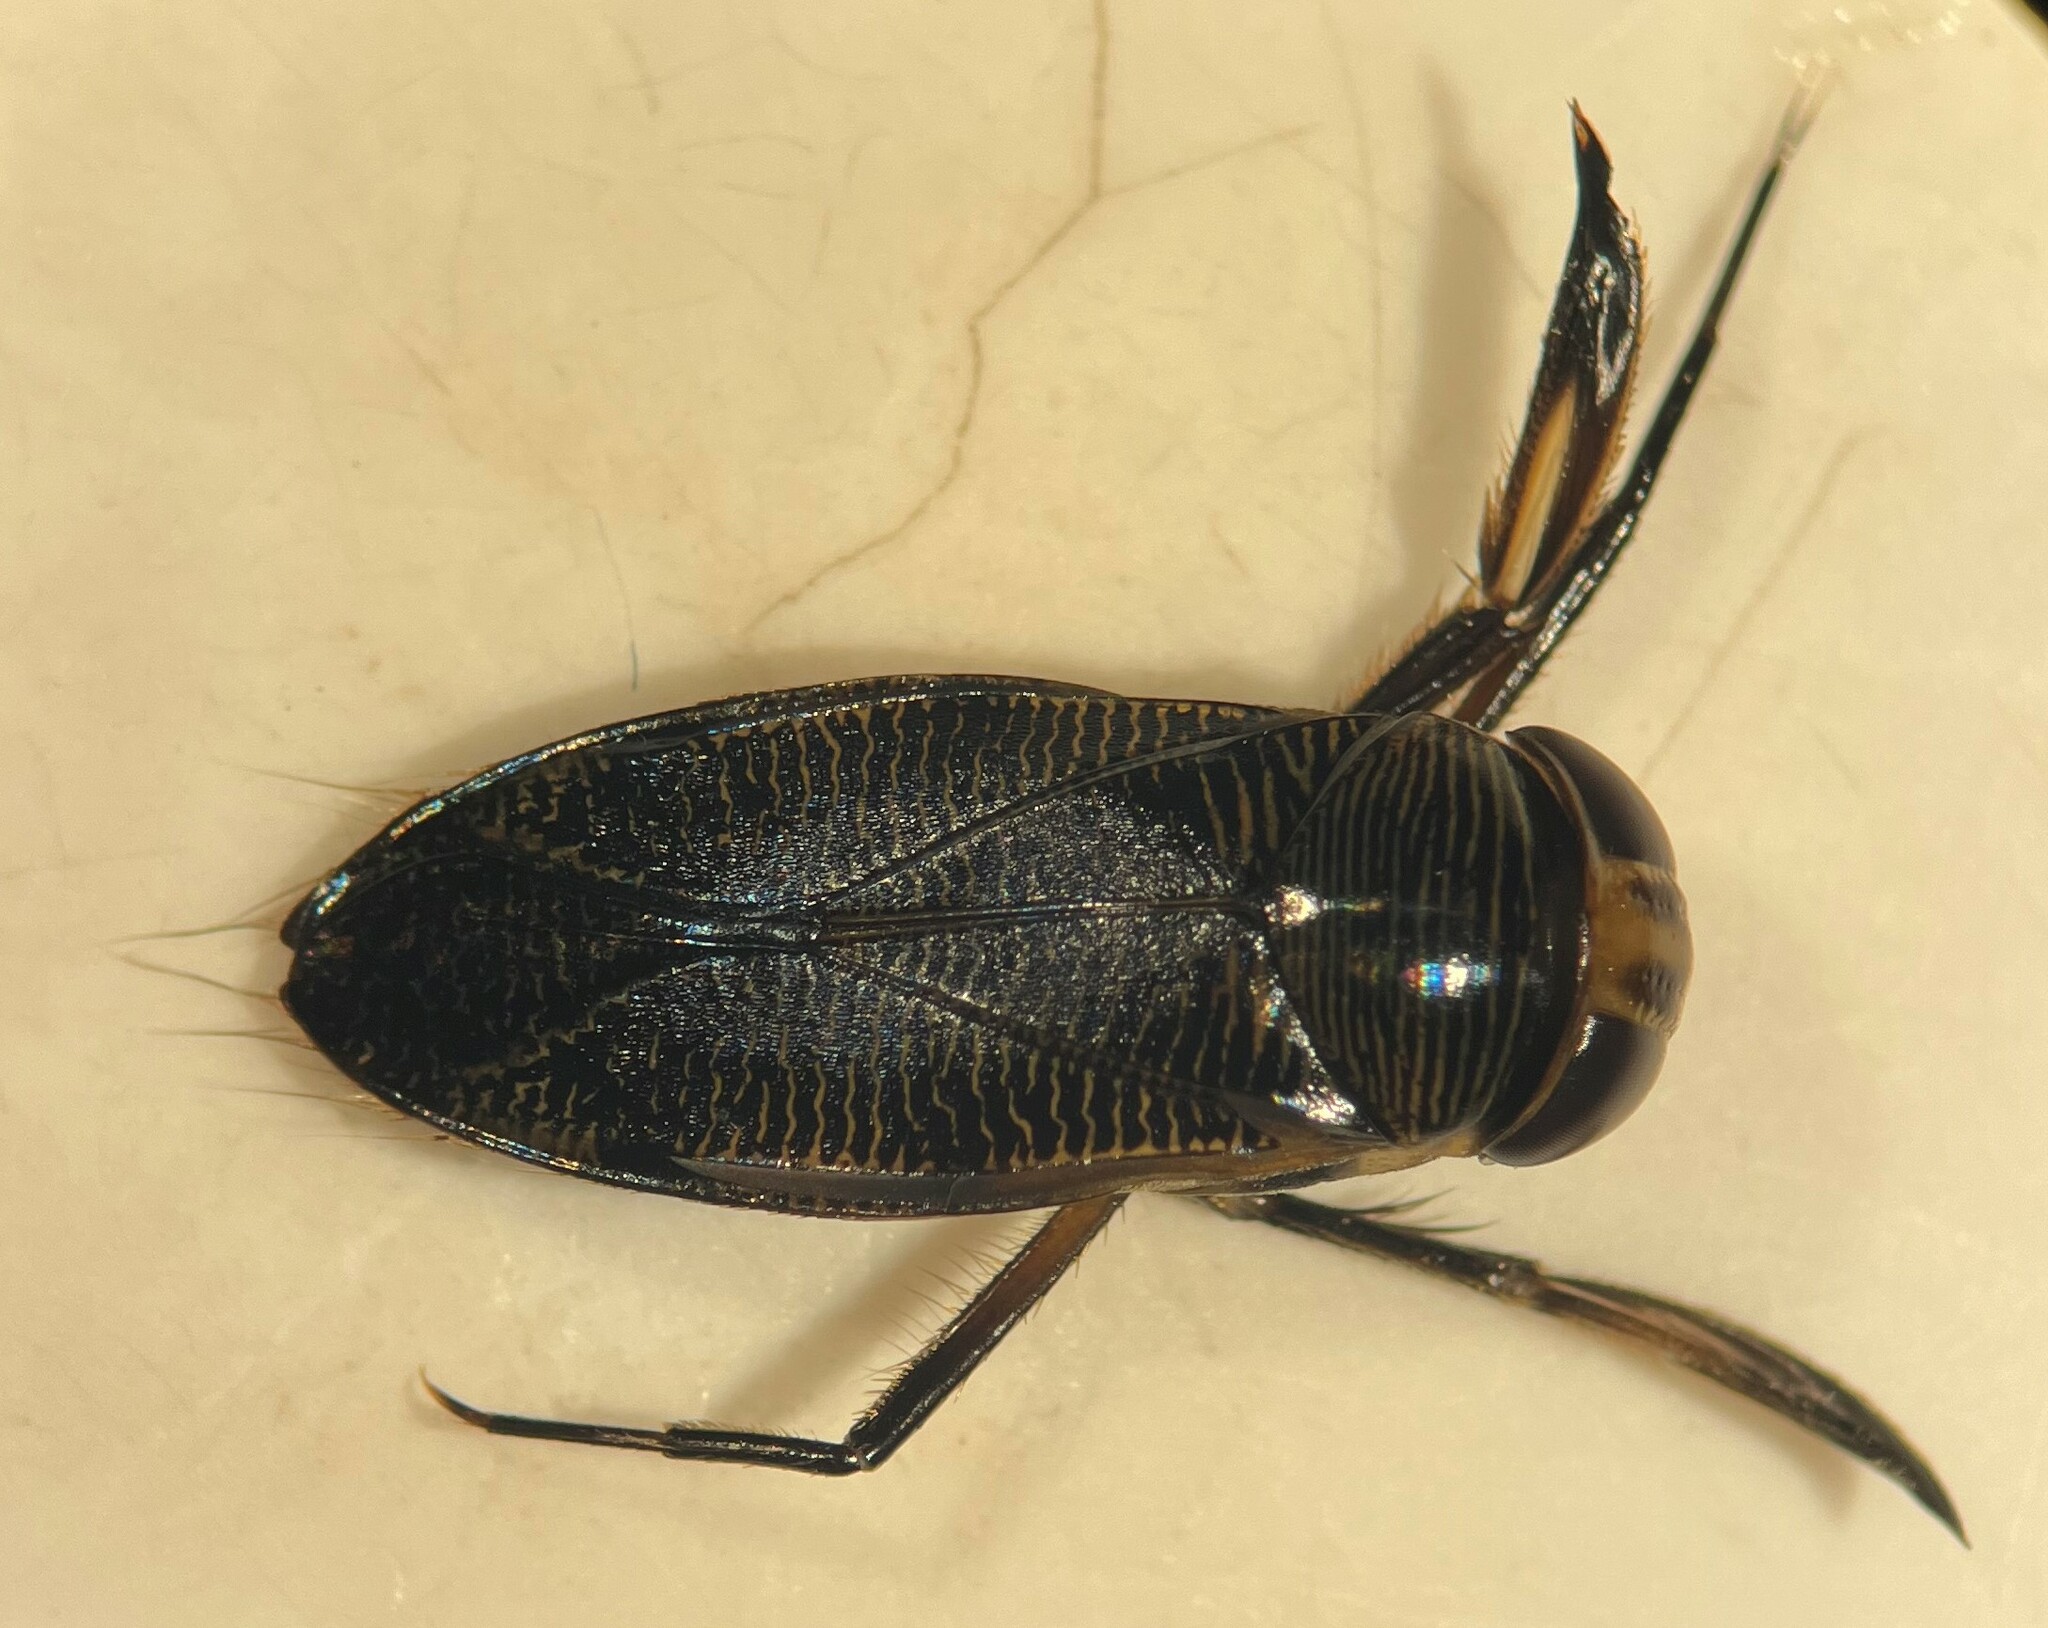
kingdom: Animalia
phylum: Arthropoda
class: Insecta
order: Hemiptera
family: Corixidae
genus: Graptocorixa
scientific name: Graptocorixa abdominalis
